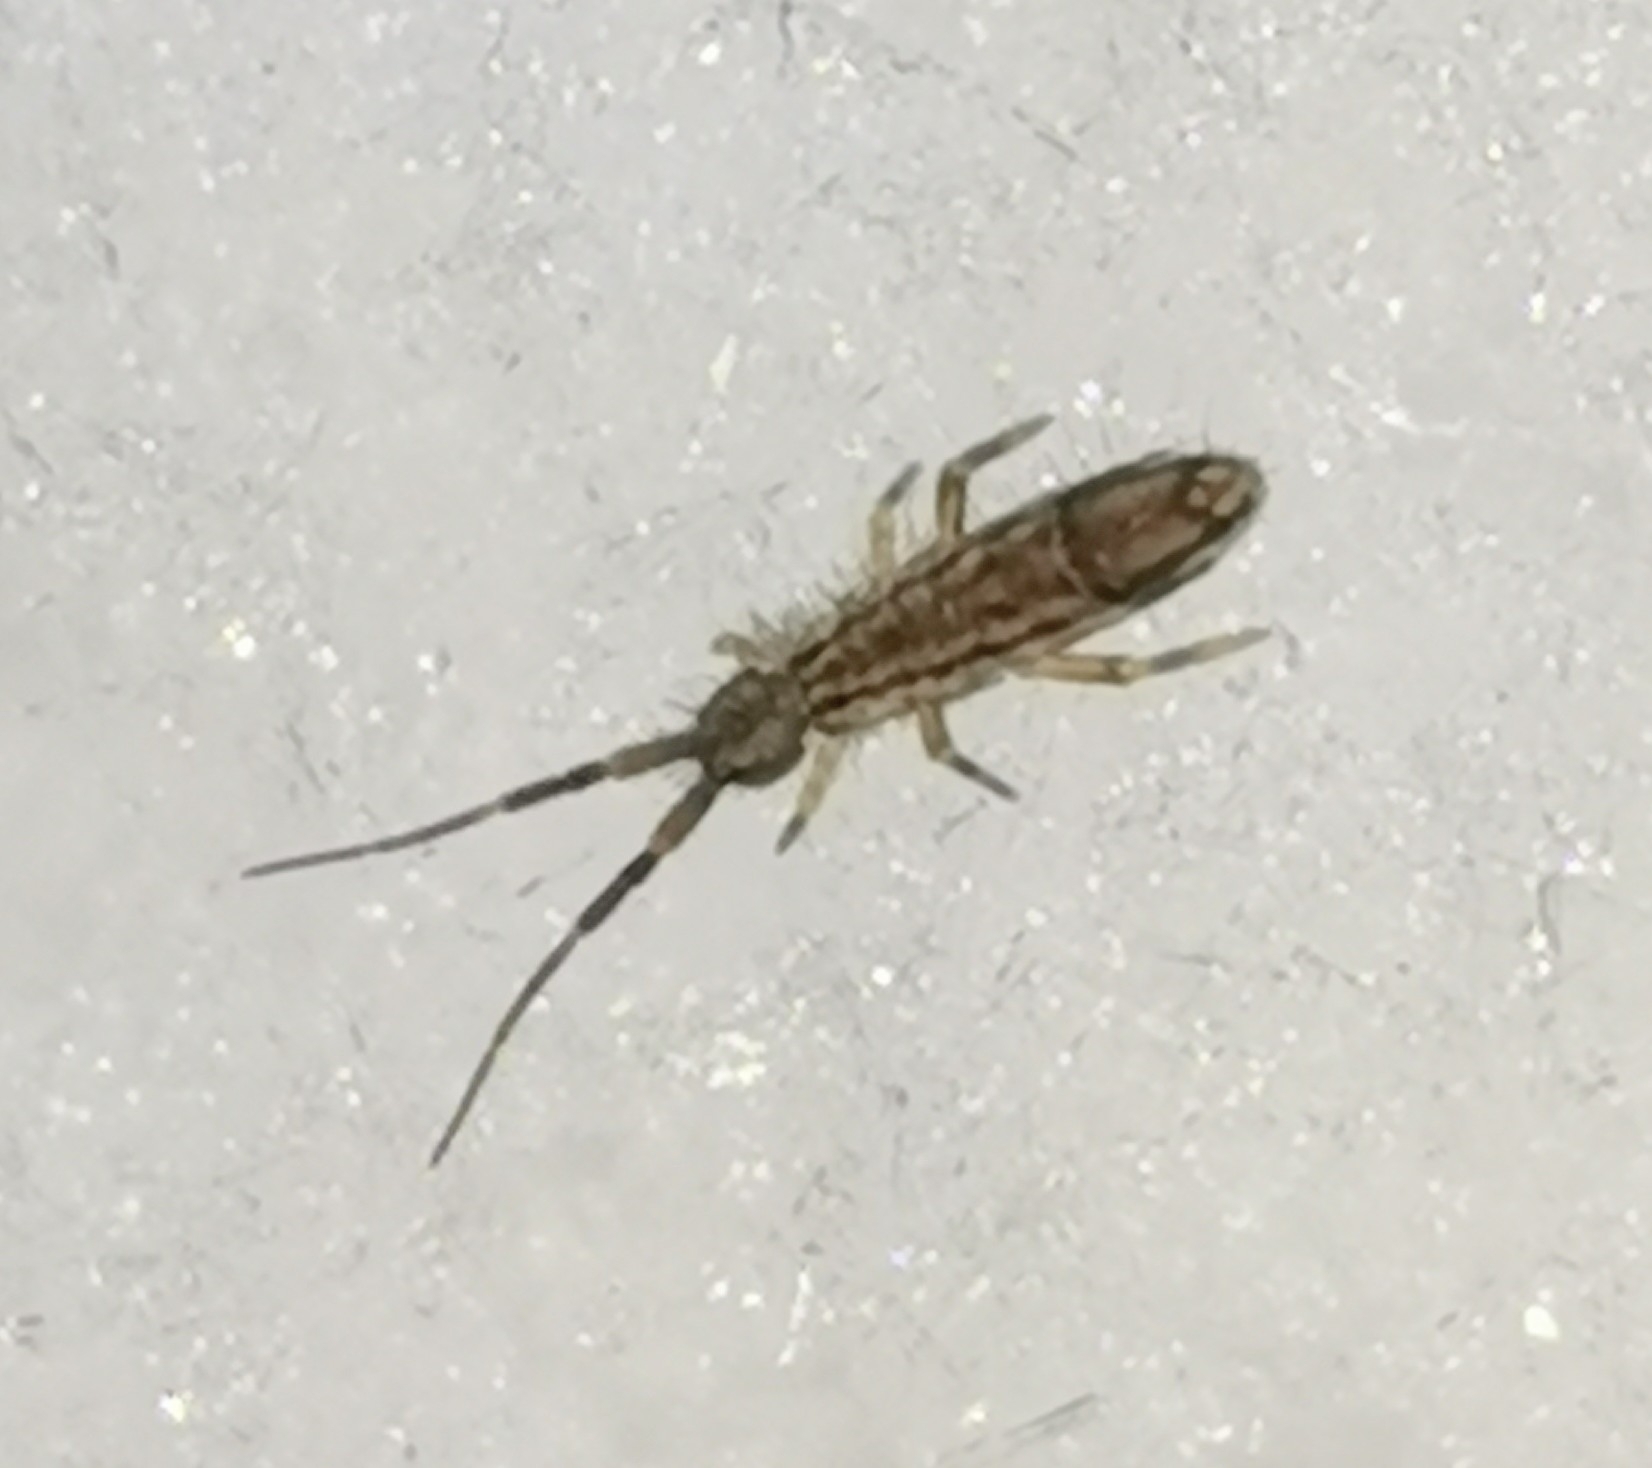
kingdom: Animalia
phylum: Arthropoda
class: Collembola
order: Entomobryomorpha
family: Entomobryidae
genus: Entomobrya
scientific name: Entomobrya nivalis
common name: Cosmopolitan springtail
